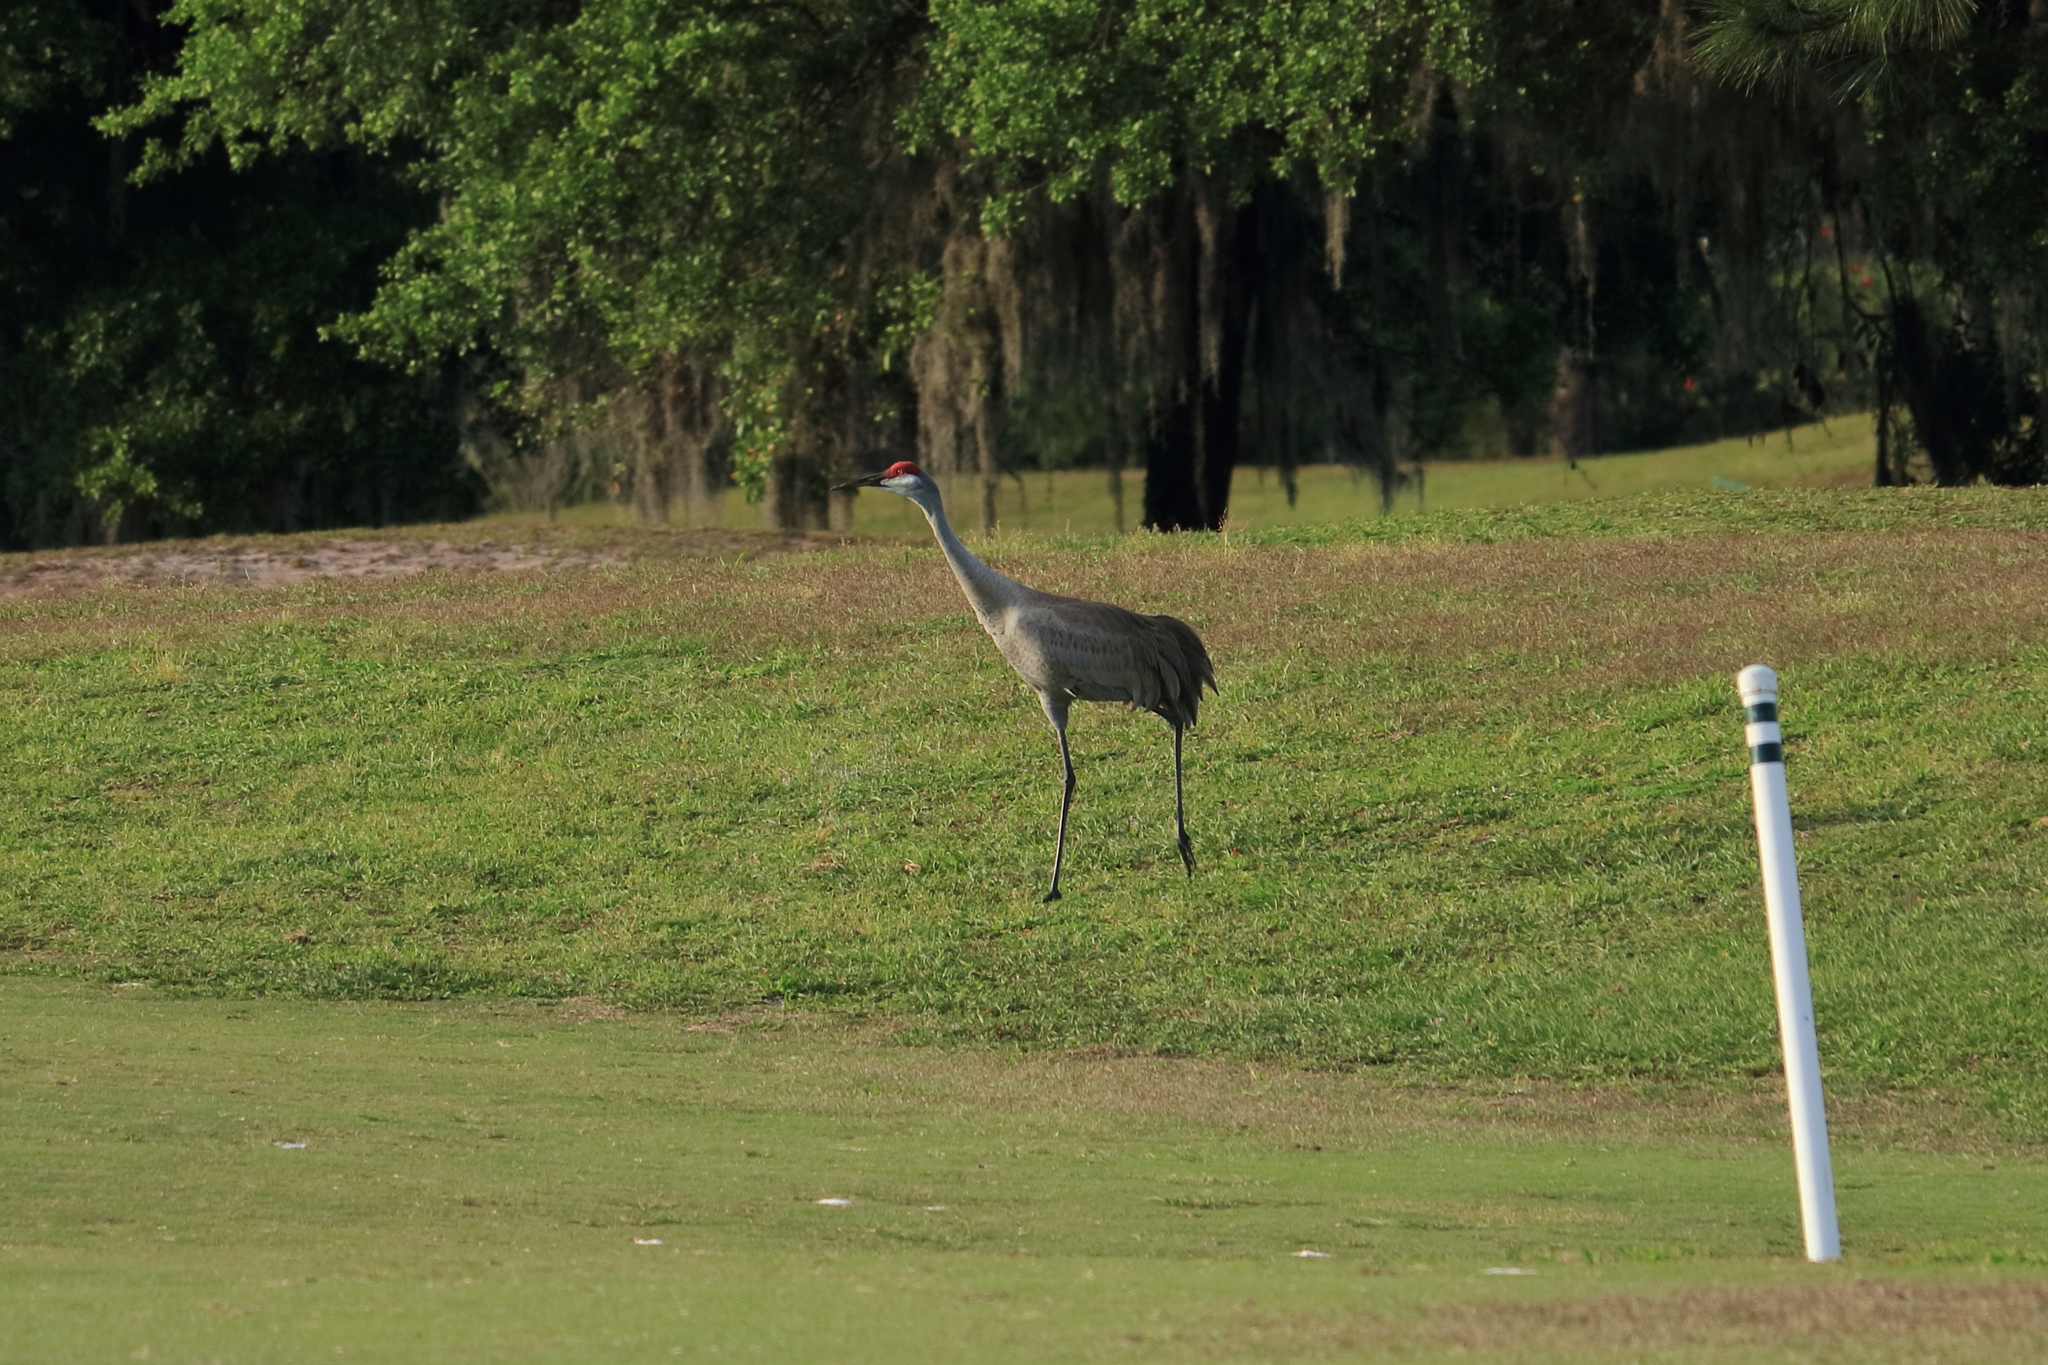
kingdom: Animalia
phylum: Chordata
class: Aves
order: Gruiformes
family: Gruidae
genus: Grus
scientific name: Grus canadensis
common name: Sandhill crane
